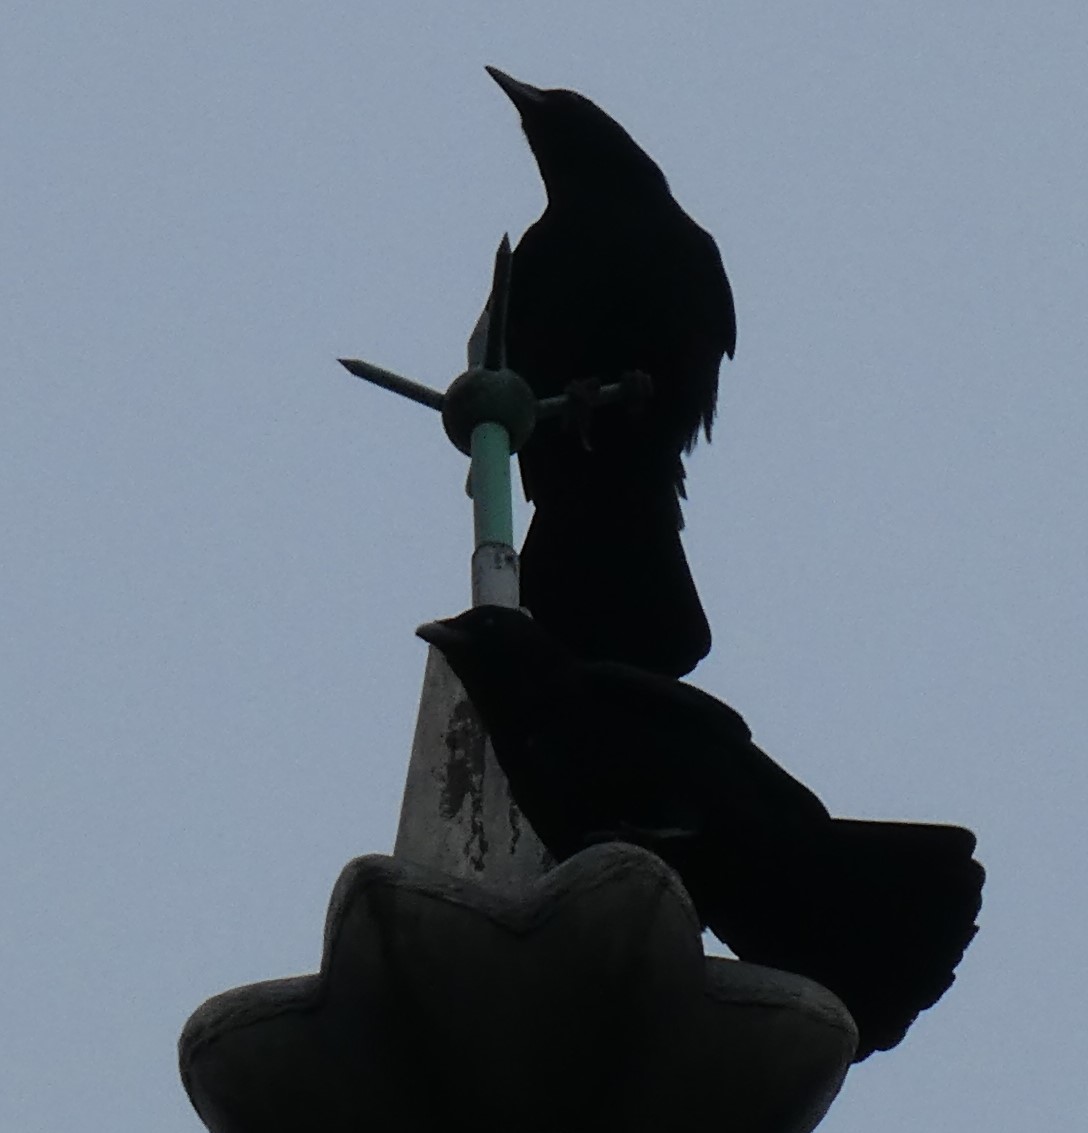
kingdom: Animalia
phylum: Chordata
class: Aves
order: Passeriformes
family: Corvidae
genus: Corvus
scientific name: Corvus corone
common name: Carrion crow
